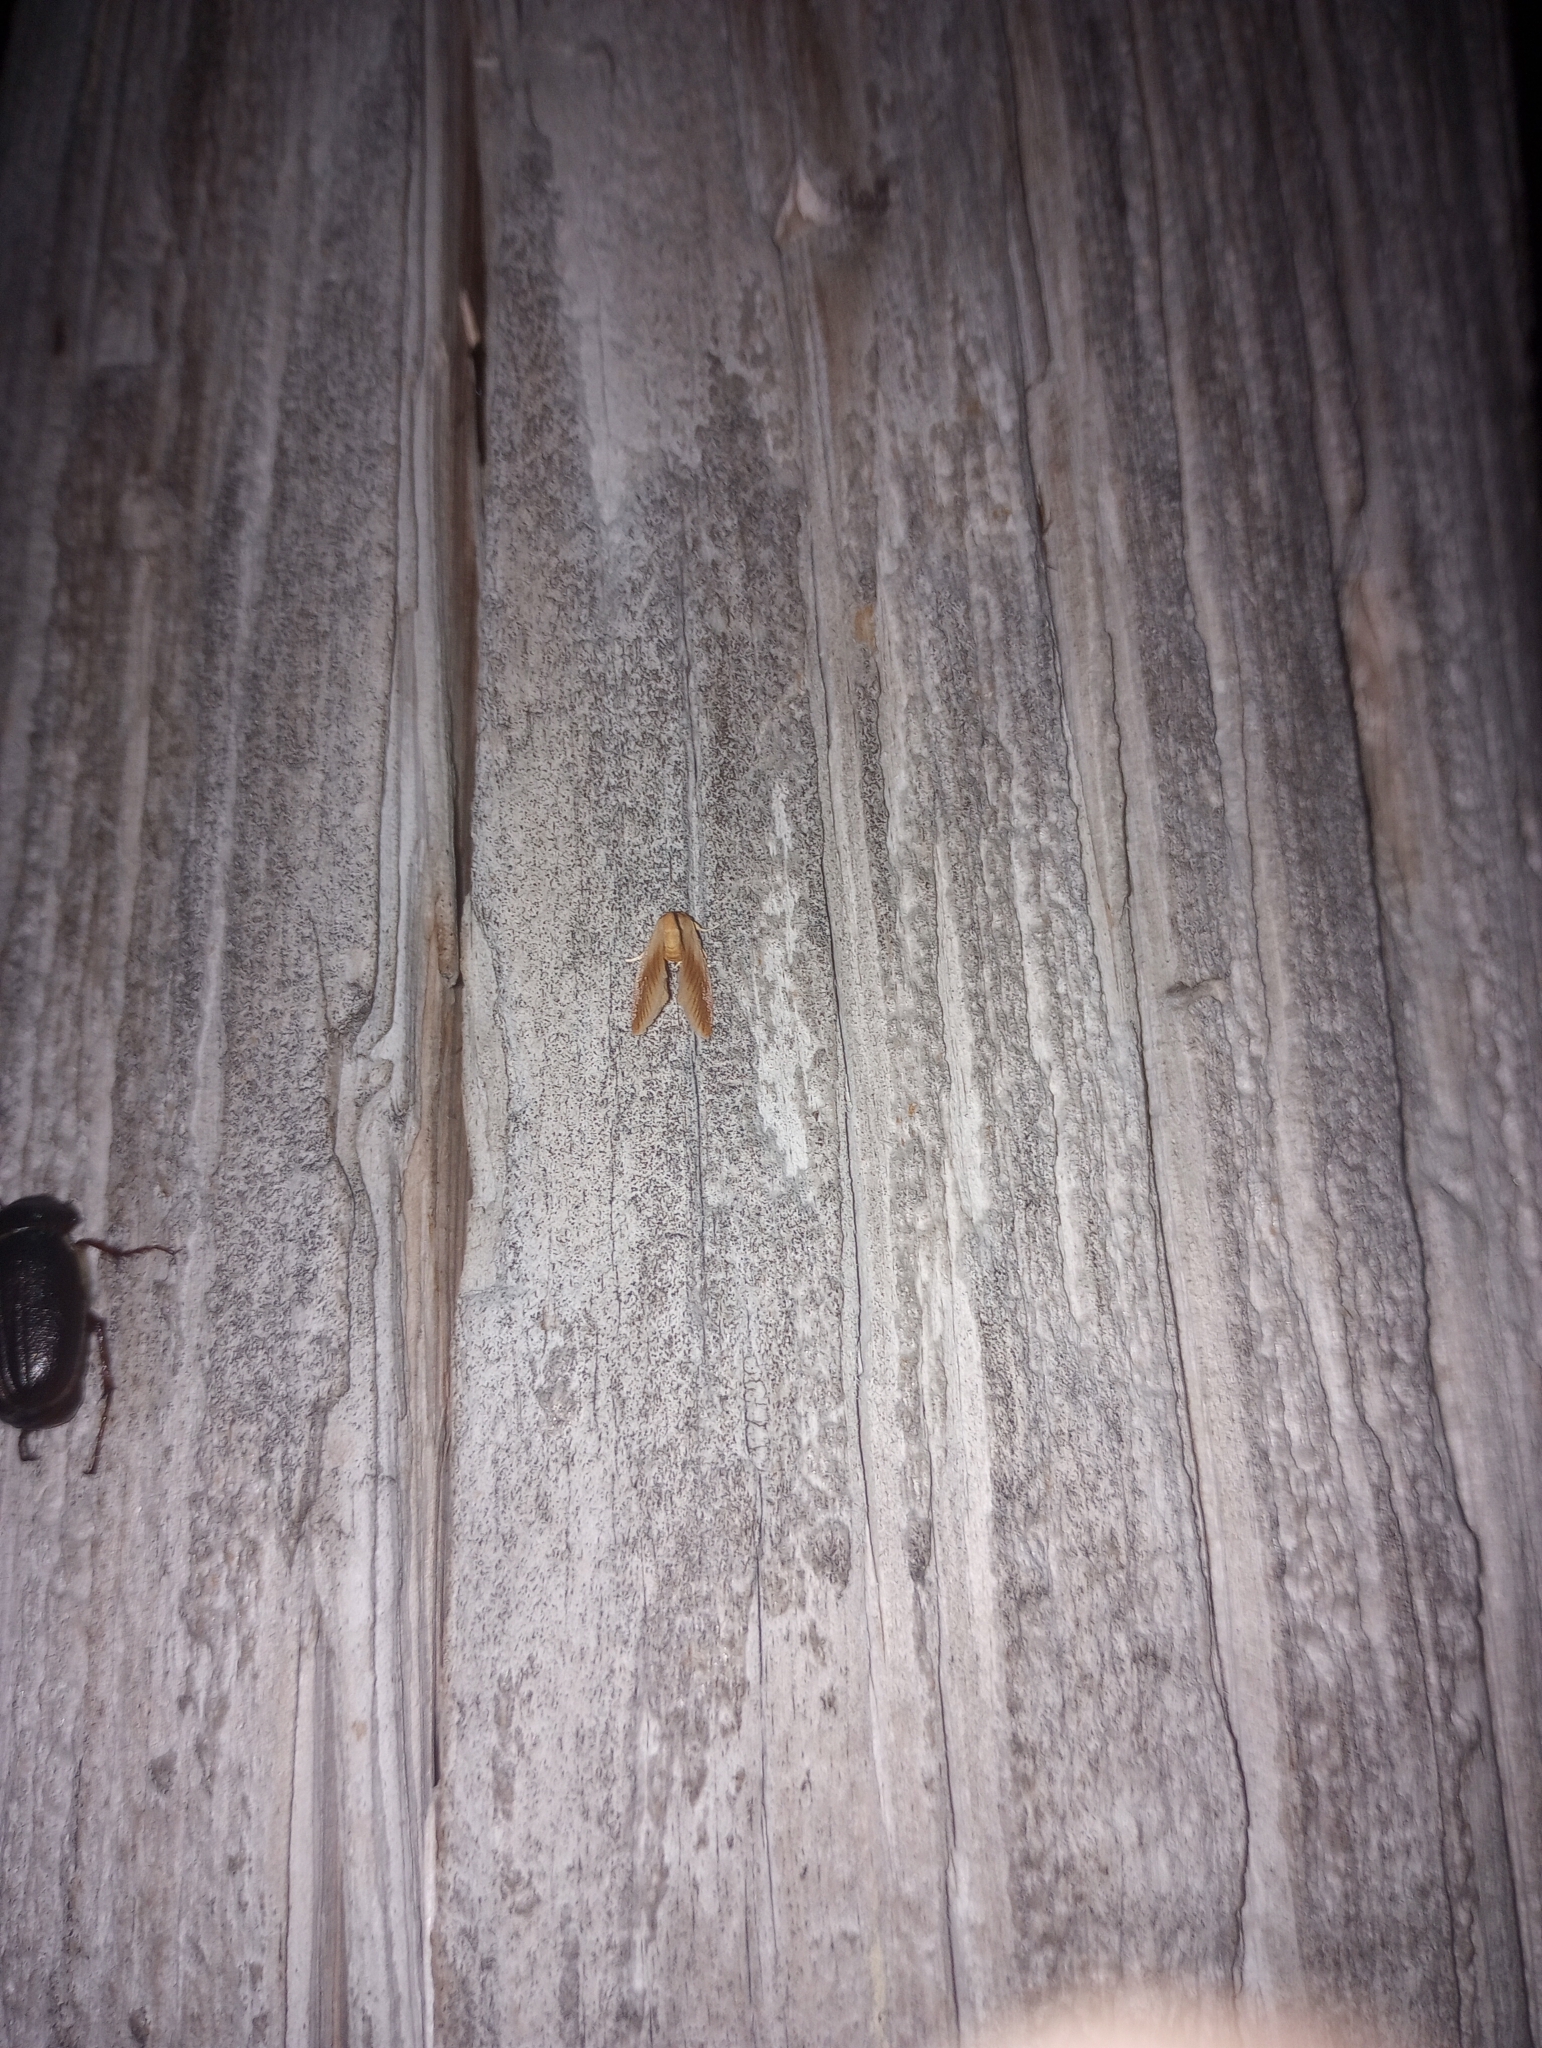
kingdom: Animalia
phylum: Arthropoda
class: Insecta
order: Lepidoptera
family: Limacodidae
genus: Tortricidia
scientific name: Tortricidia testacea
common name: Early button slug moth
